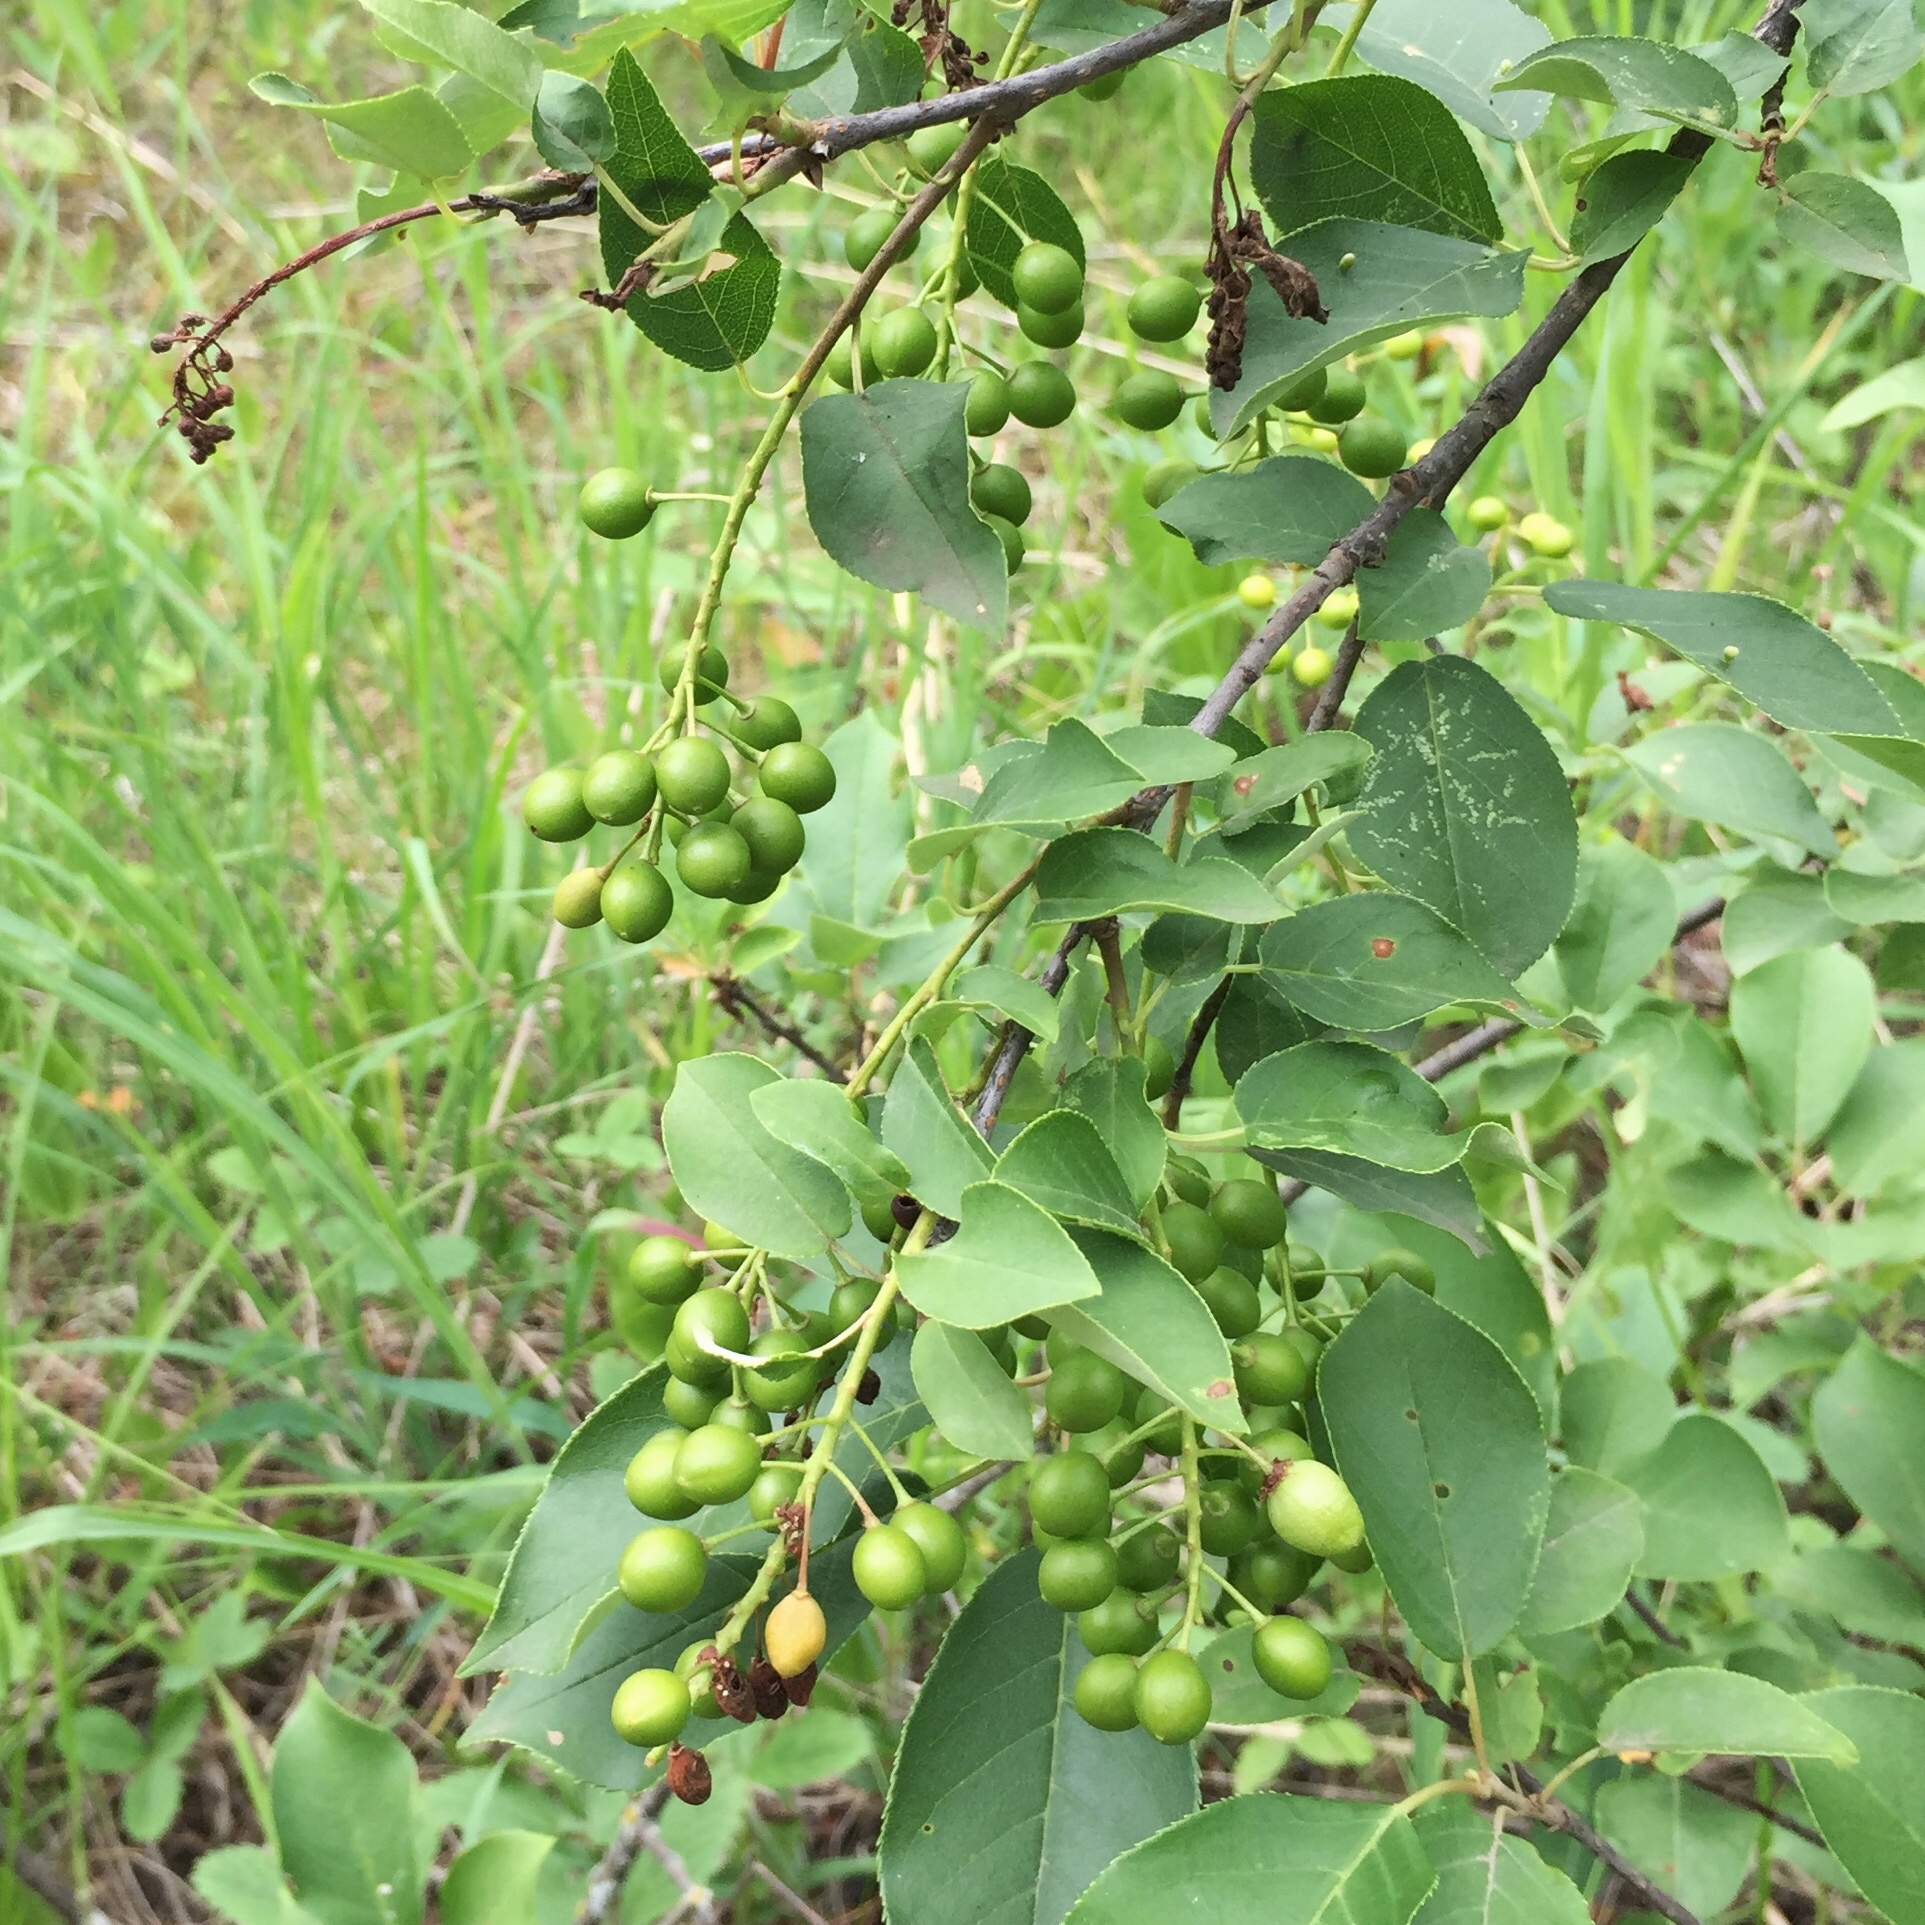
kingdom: Plantae
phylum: Tracheophyta
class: Magnoliopsida
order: Rosales
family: Rosaceae
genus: Prunus
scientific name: Prunus virginiana
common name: Chokecherry
